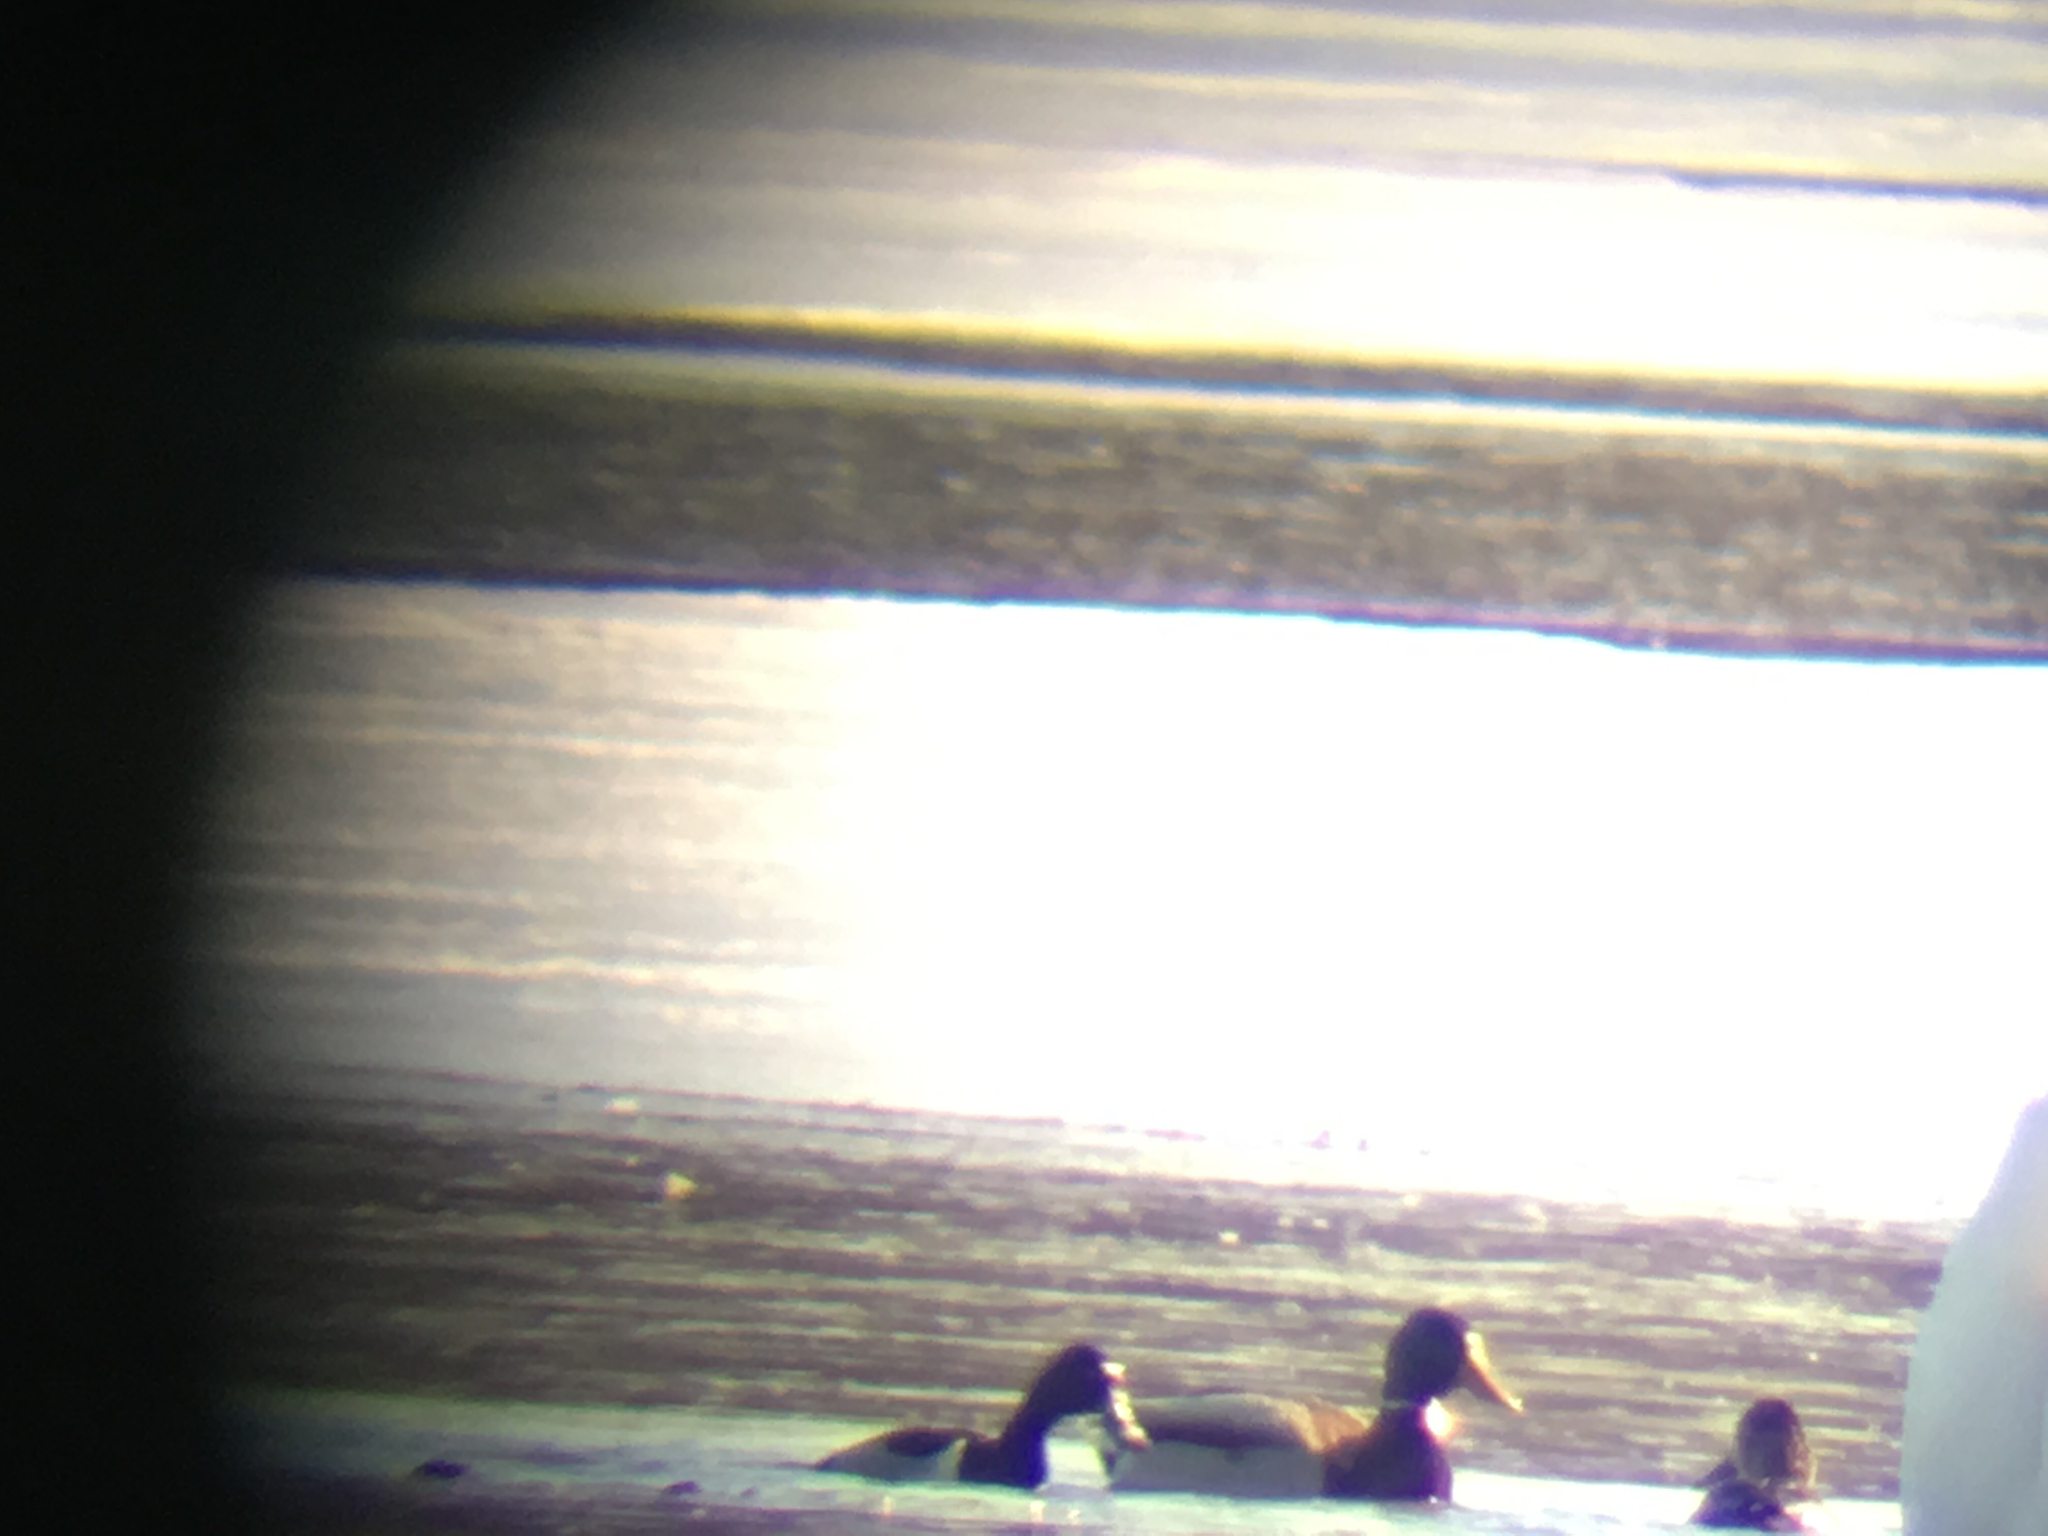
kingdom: Animalia
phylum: Chordata
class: Aves
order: Anseriformes
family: Anatidae
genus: Anas
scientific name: Anas platyrhynchos
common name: Mallard
